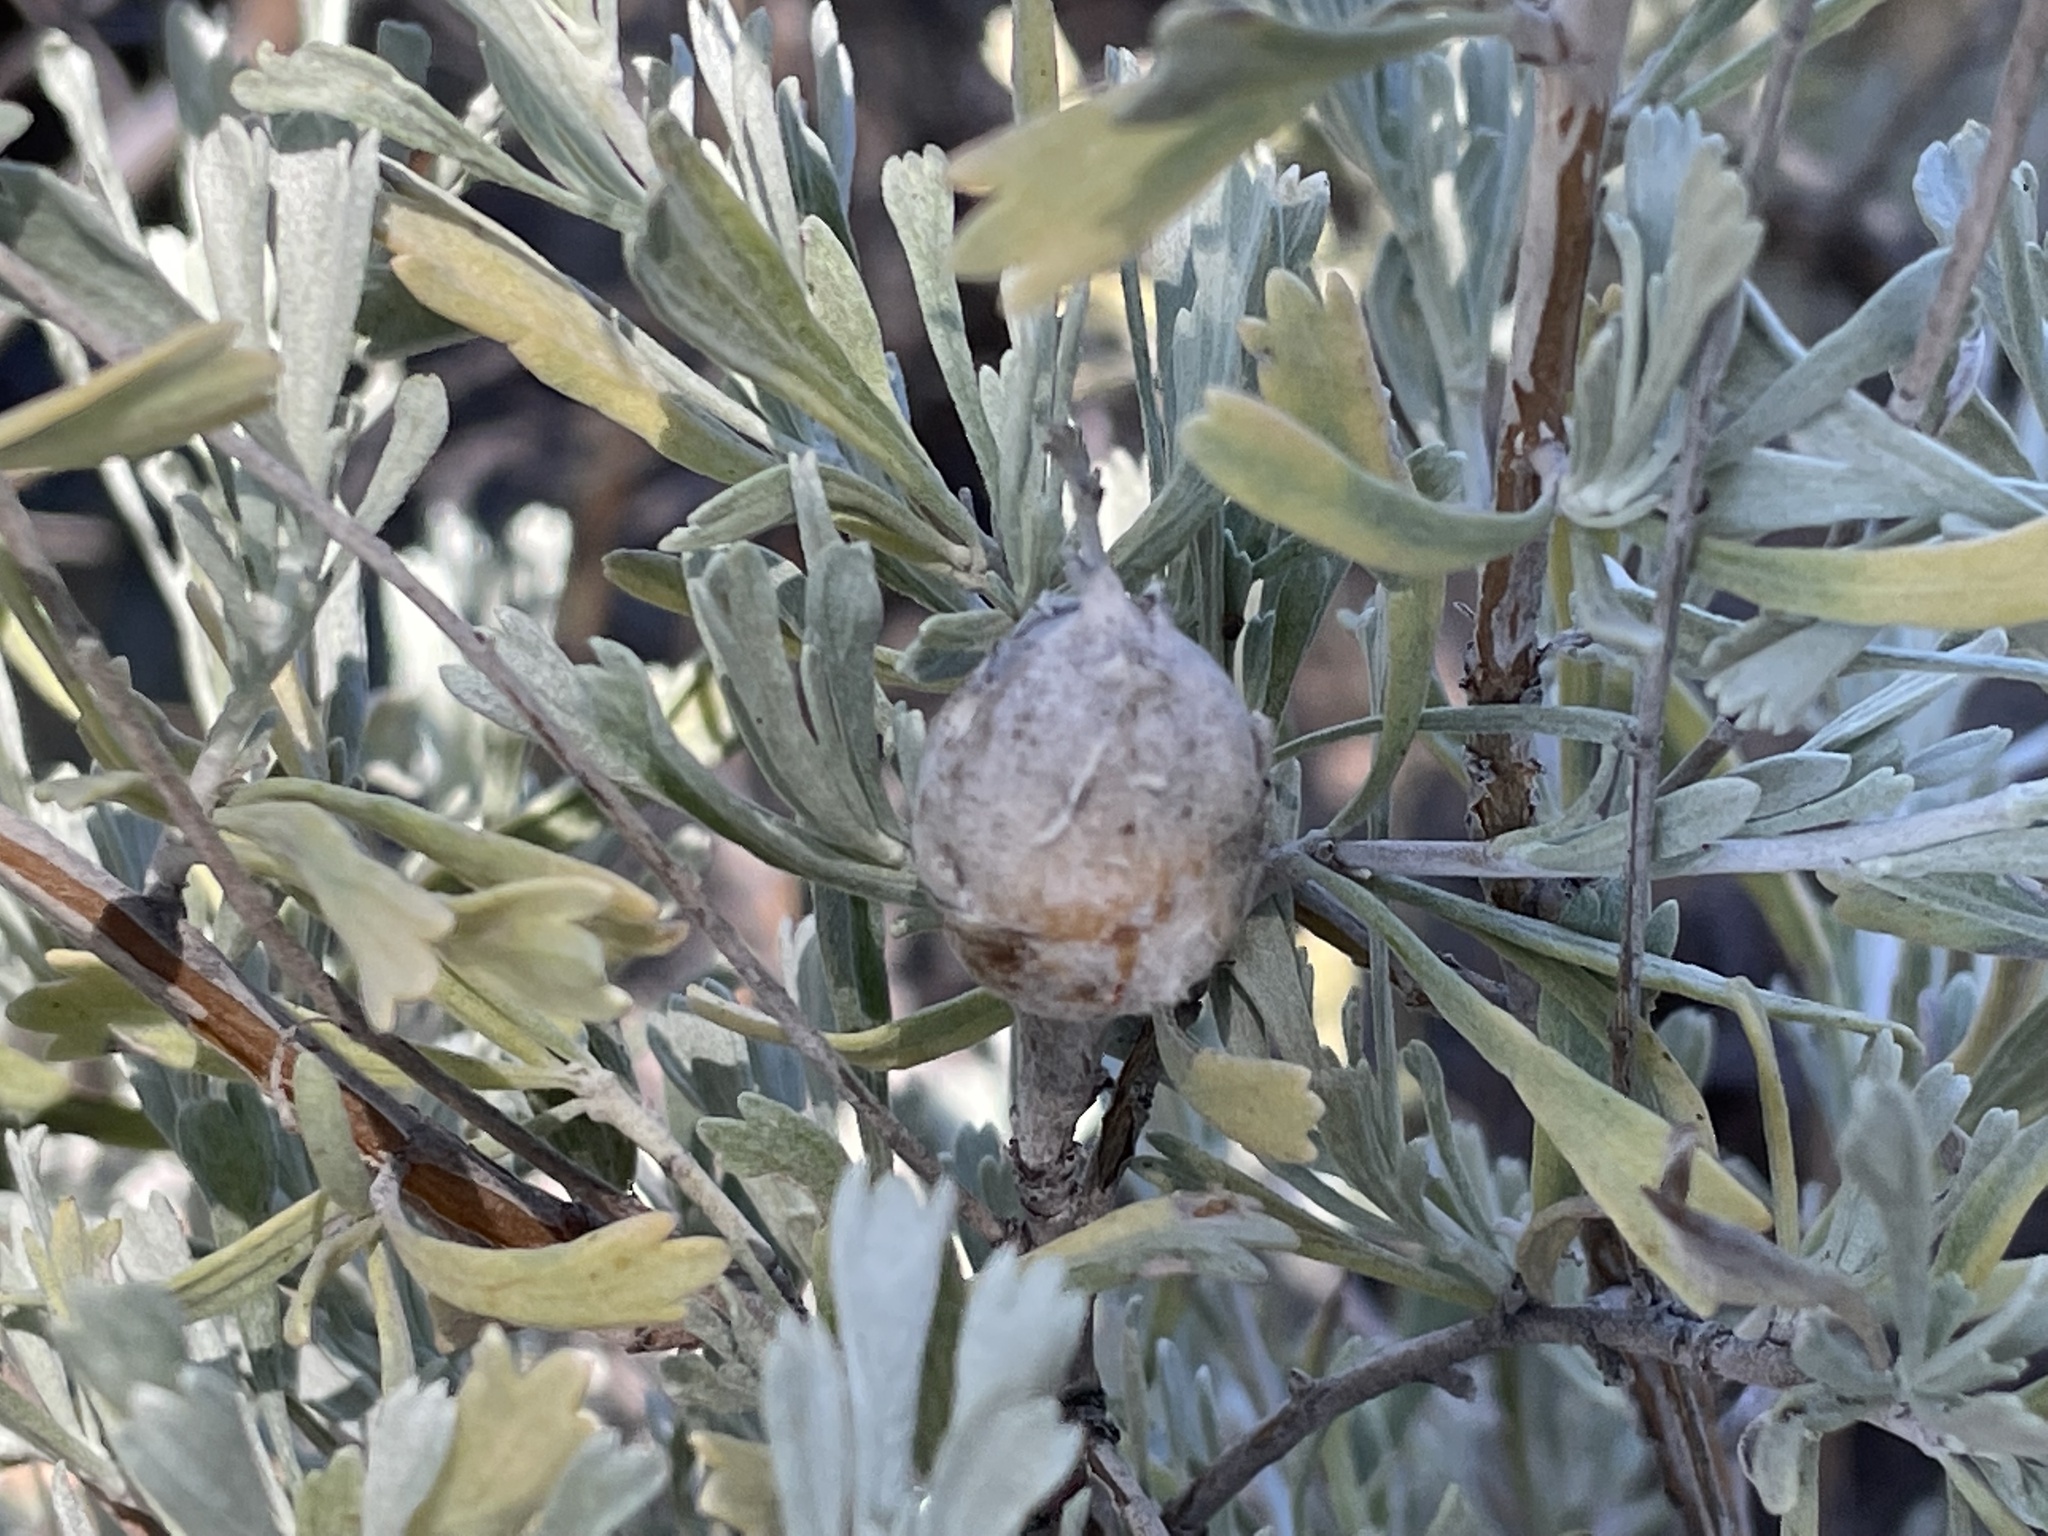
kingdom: Animalia
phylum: Arthropoda
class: Insecta
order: Diptera
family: Tephritidae
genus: Eutreta
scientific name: Eutreta diana
